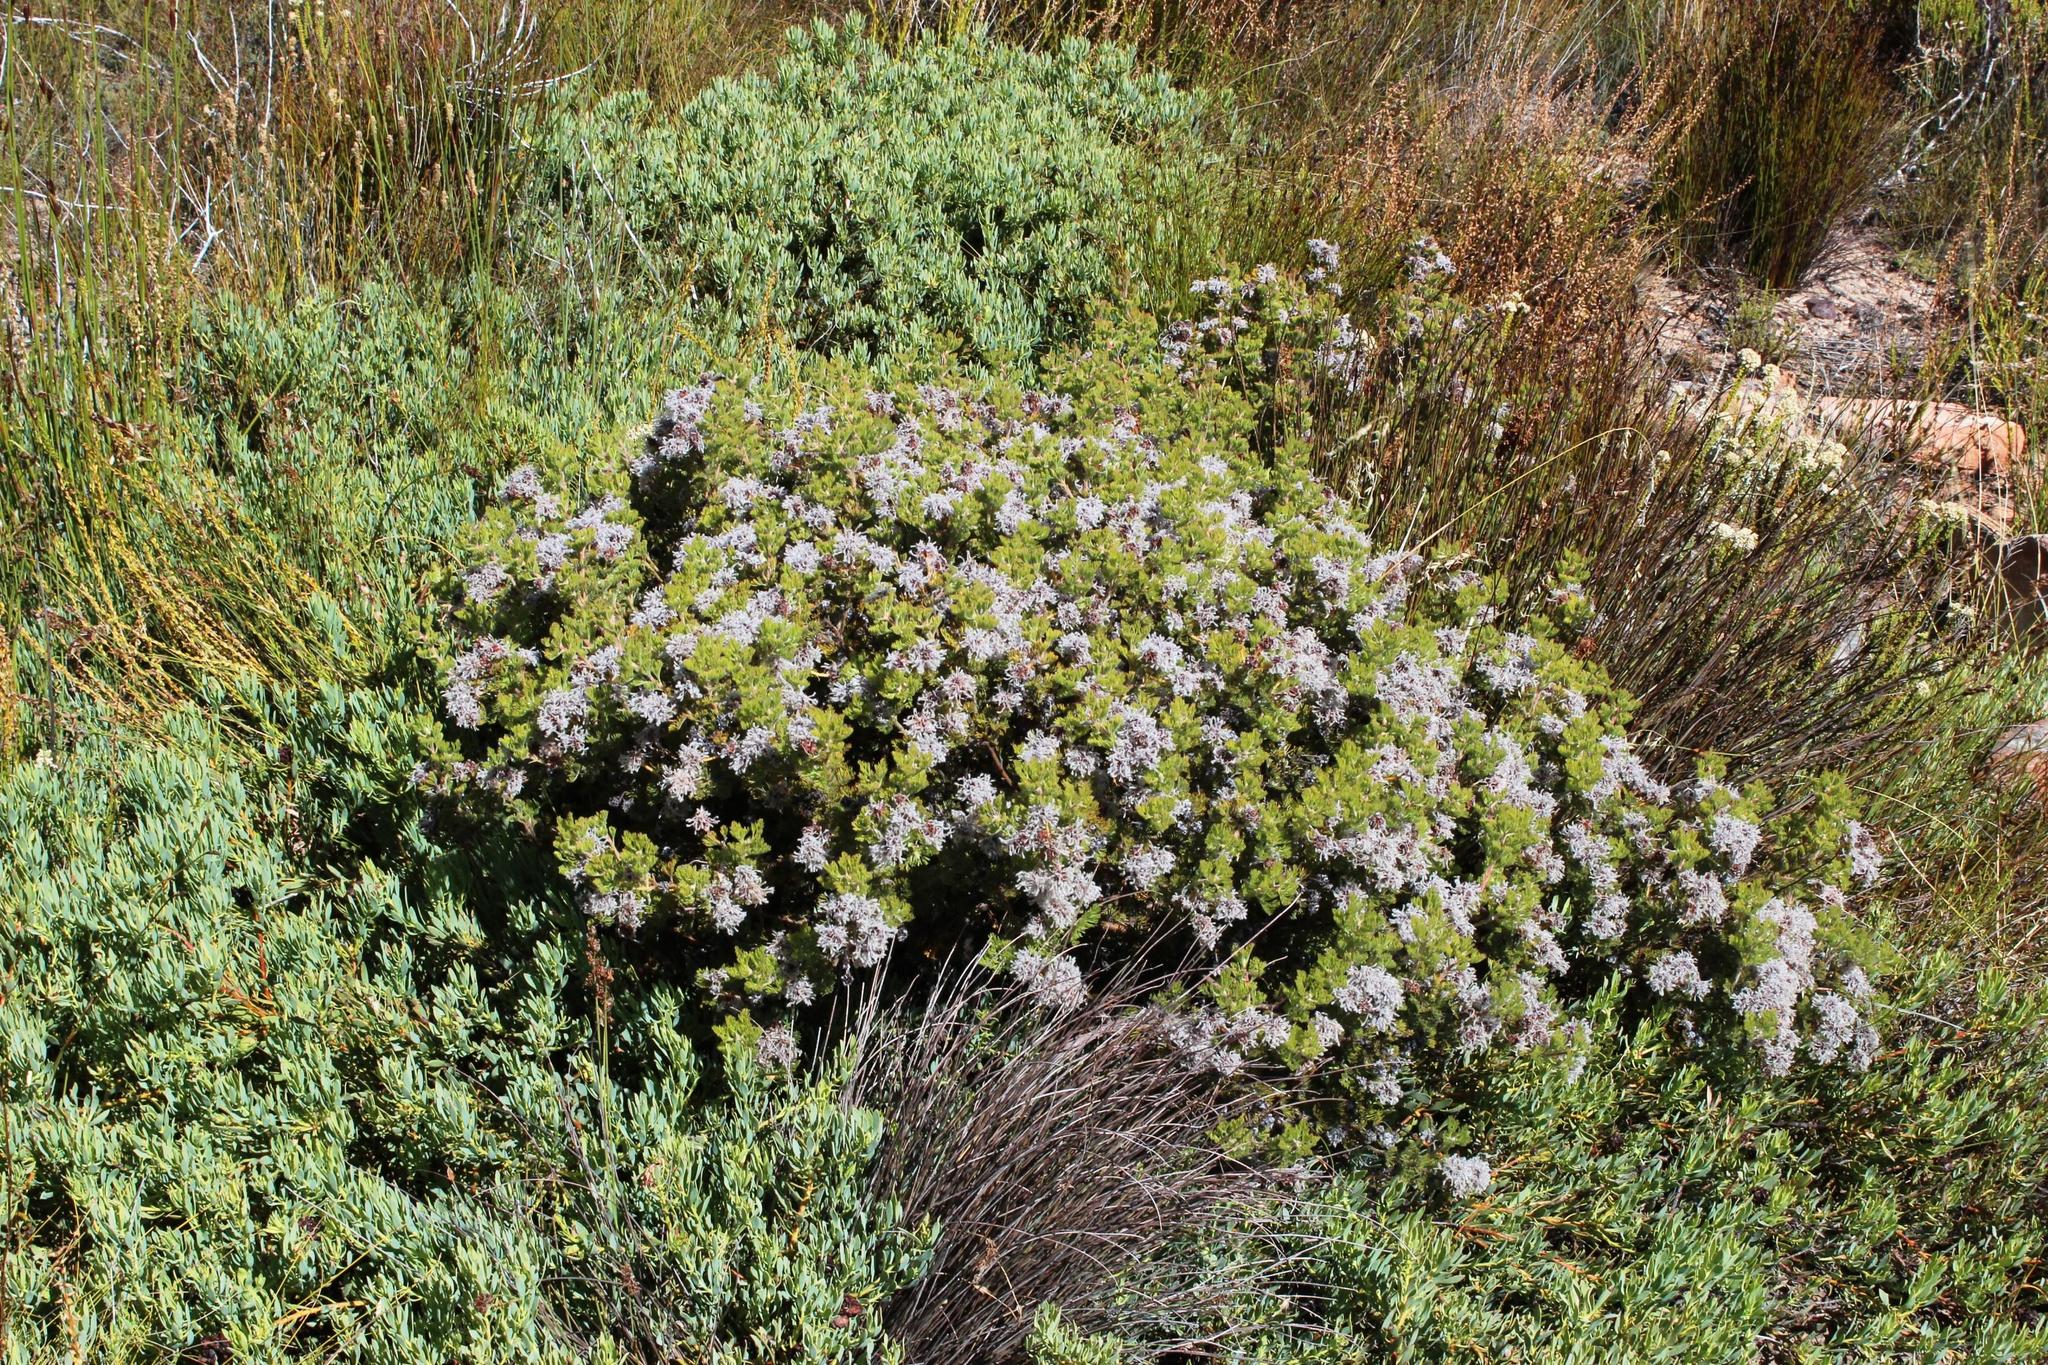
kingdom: Plantae
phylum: Tracheophyta
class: Magnoliopsida
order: Proteales
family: Proteaceae
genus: Serruria
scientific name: Serruria aitonii
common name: Marshmallow spiderhead
